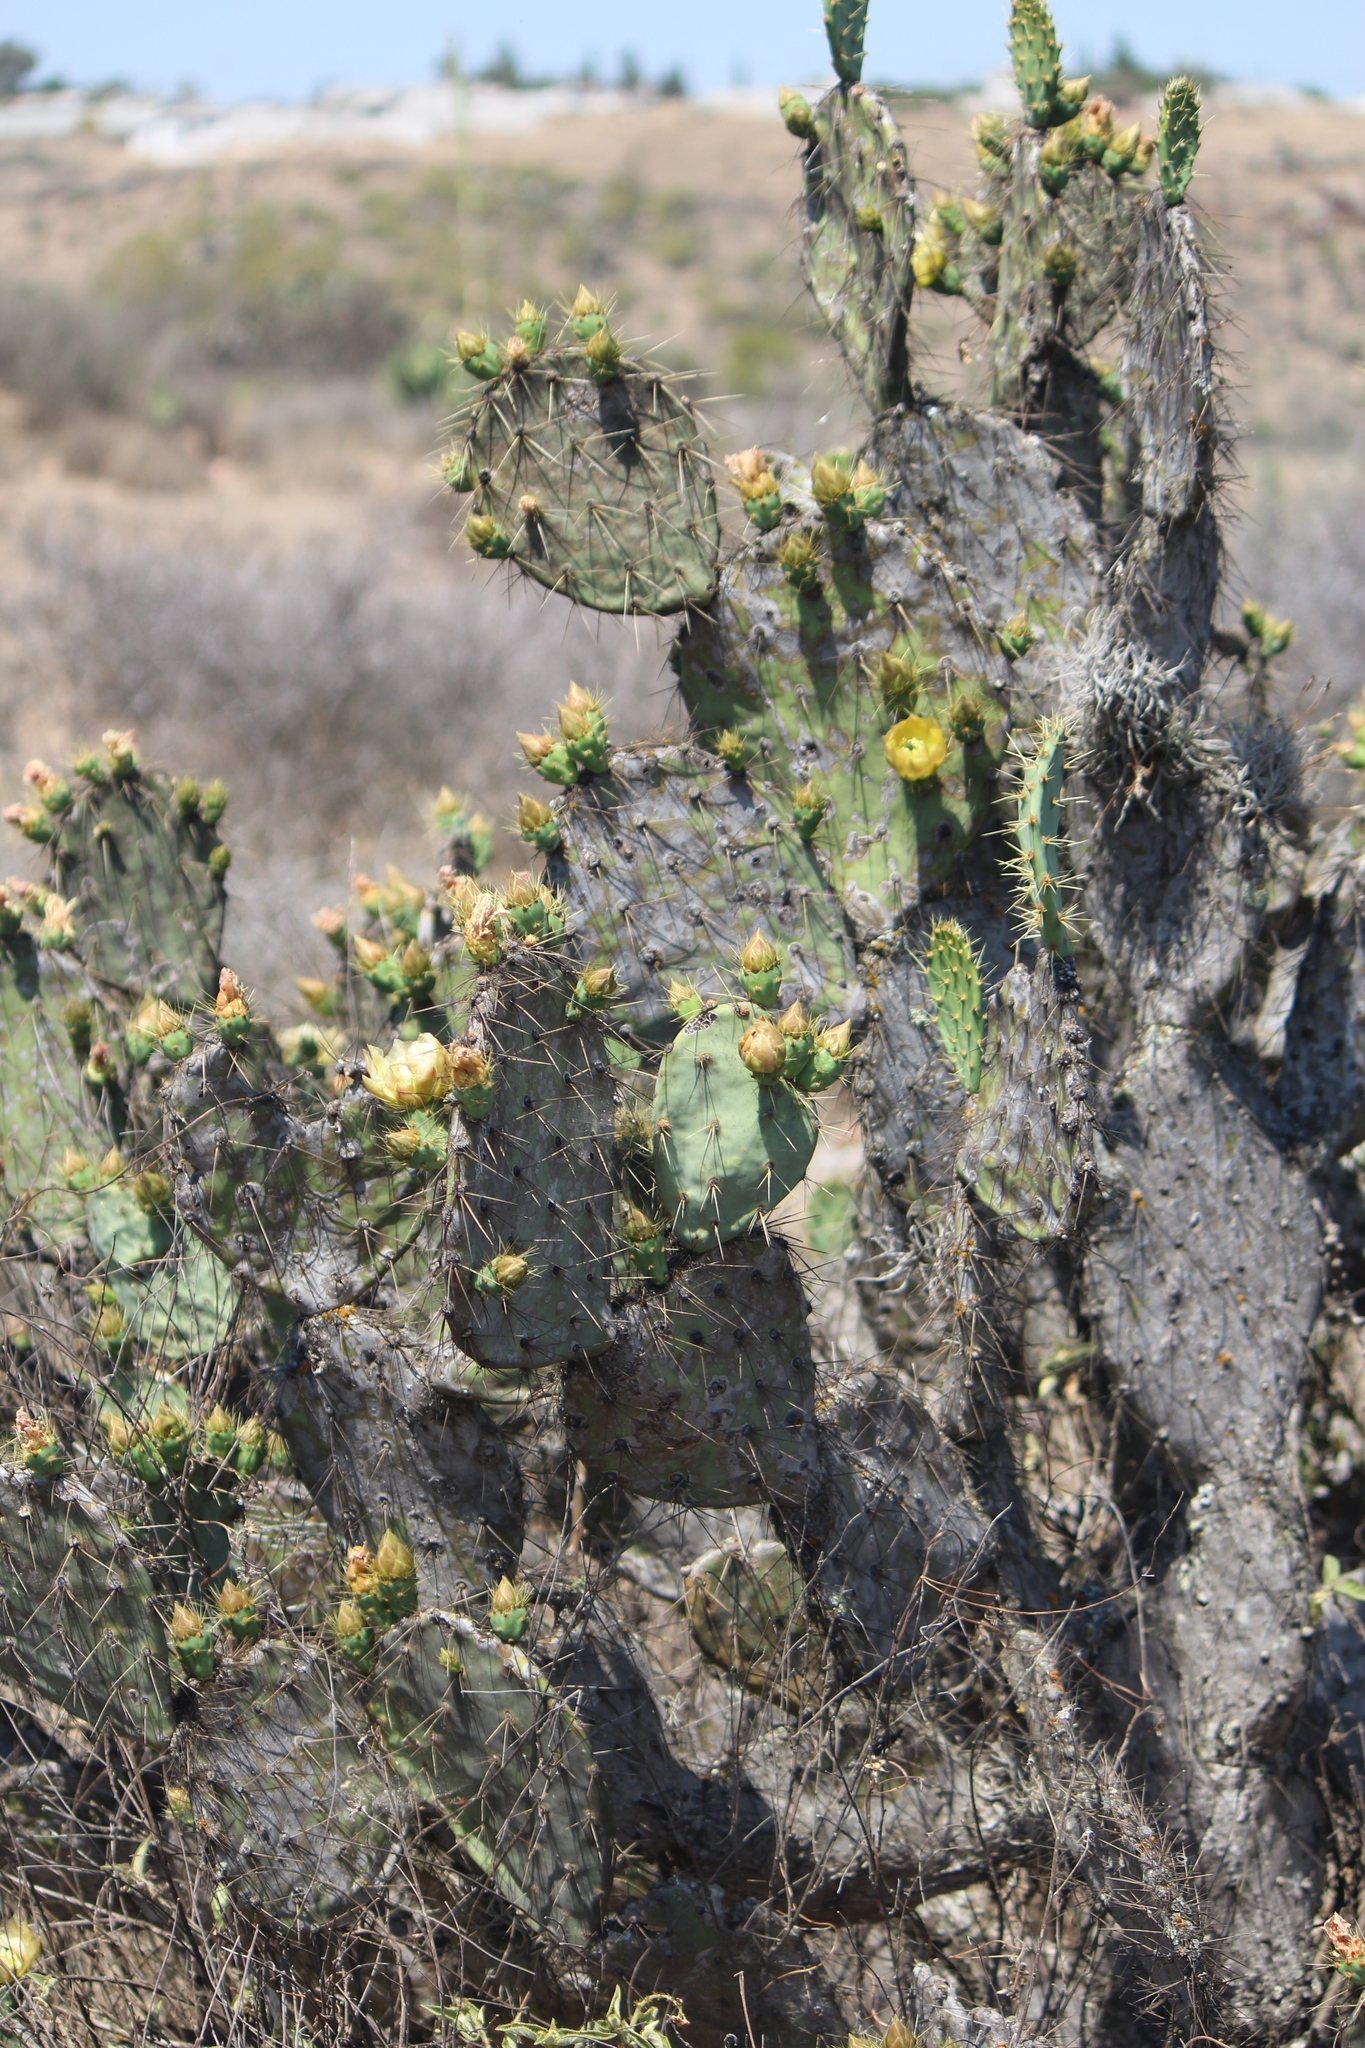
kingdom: Plantae
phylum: Tracheophyta
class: Magnoliopsida
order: Caryophyllales
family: Cactaceae
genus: Opuntia
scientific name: Opuntia engelmannii
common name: Cactus-apple
